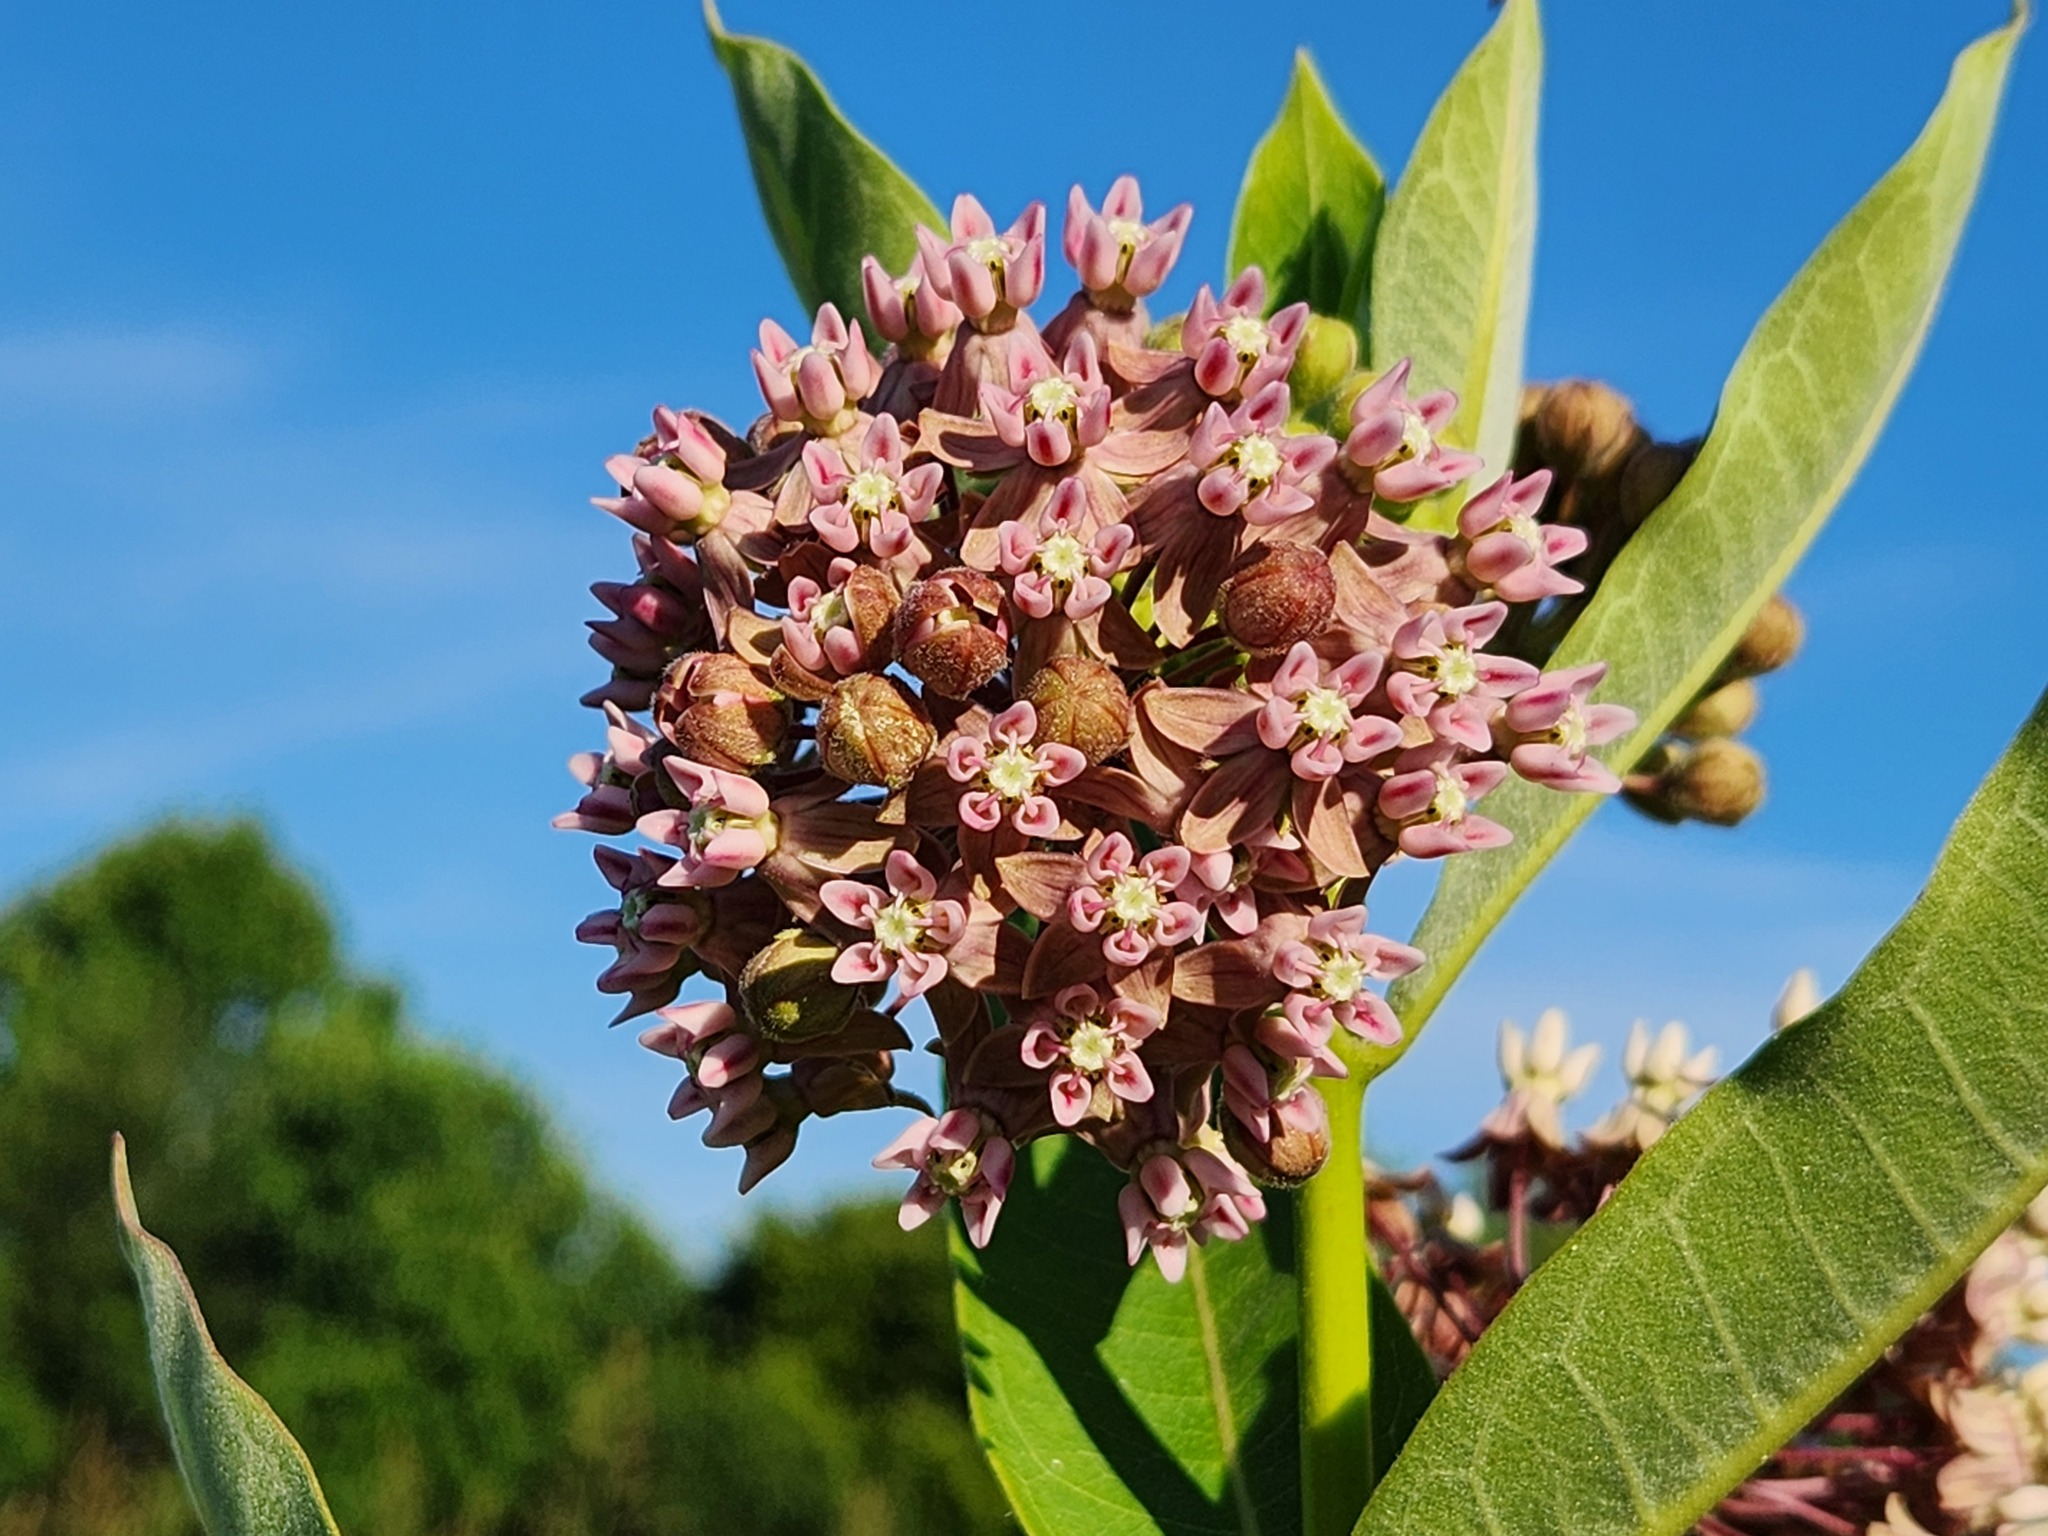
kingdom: Plantae
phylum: Tracheophyta
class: Magnoliopsida
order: Gentianales
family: Apocynaceae
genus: Asclepias
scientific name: Asclepias syriaca
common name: Common milkweed
